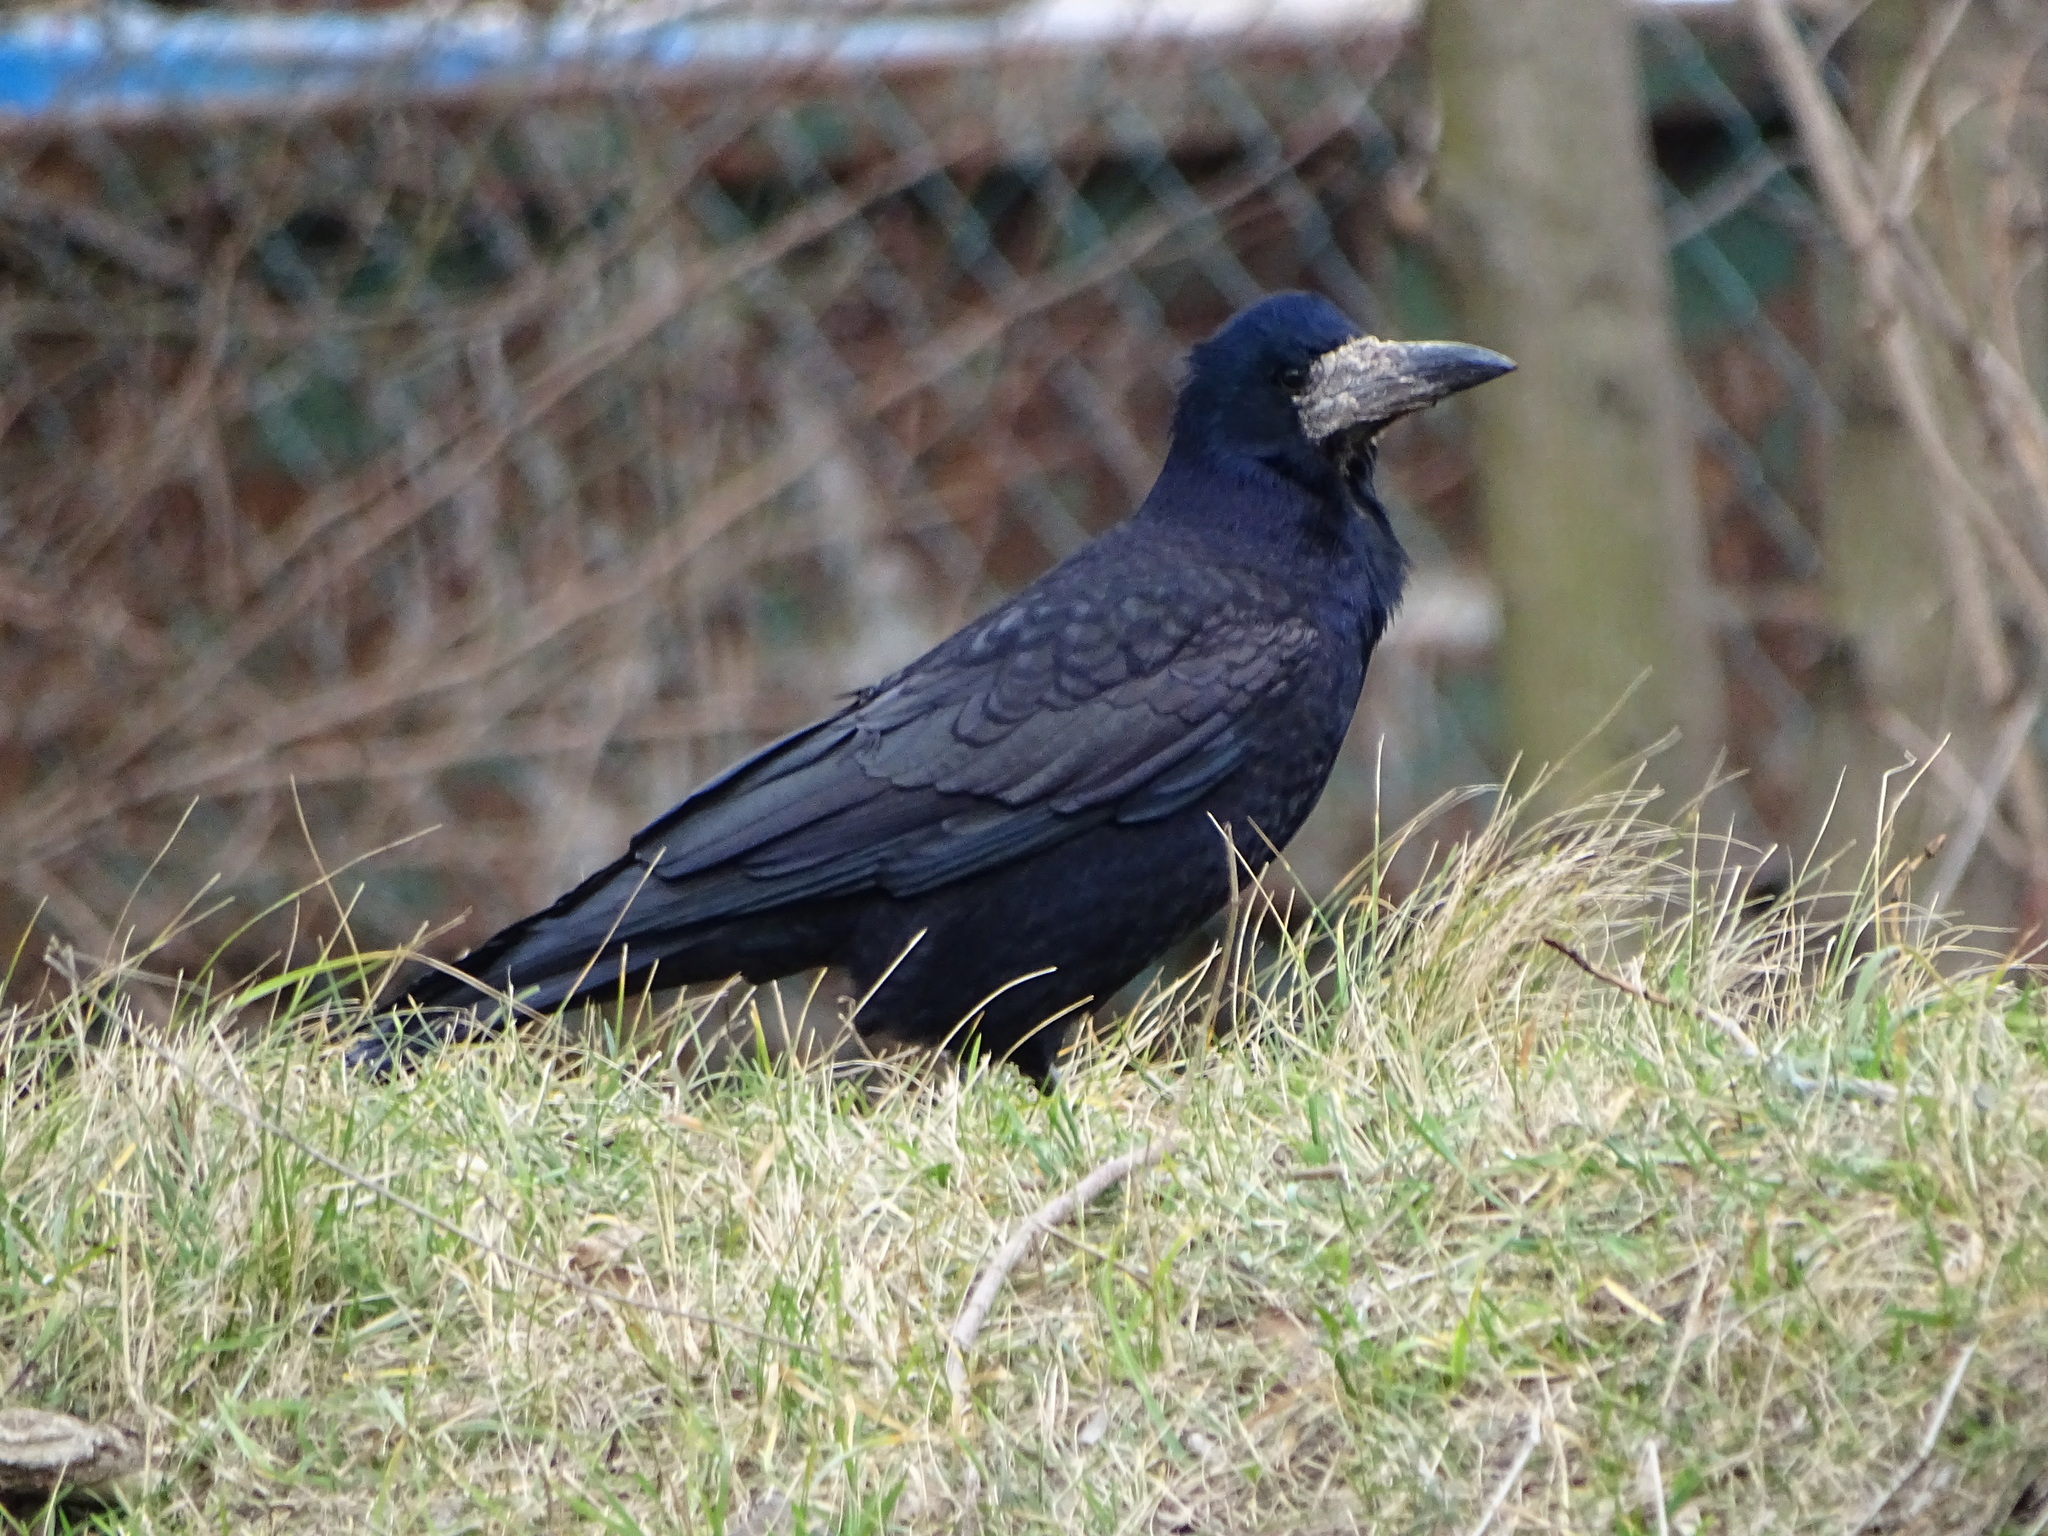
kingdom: Animalia
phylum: Chordata
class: Aves
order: Passeriformes
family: Corvidae
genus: Corvus
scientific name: Corvus frugilegus
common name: Rook
